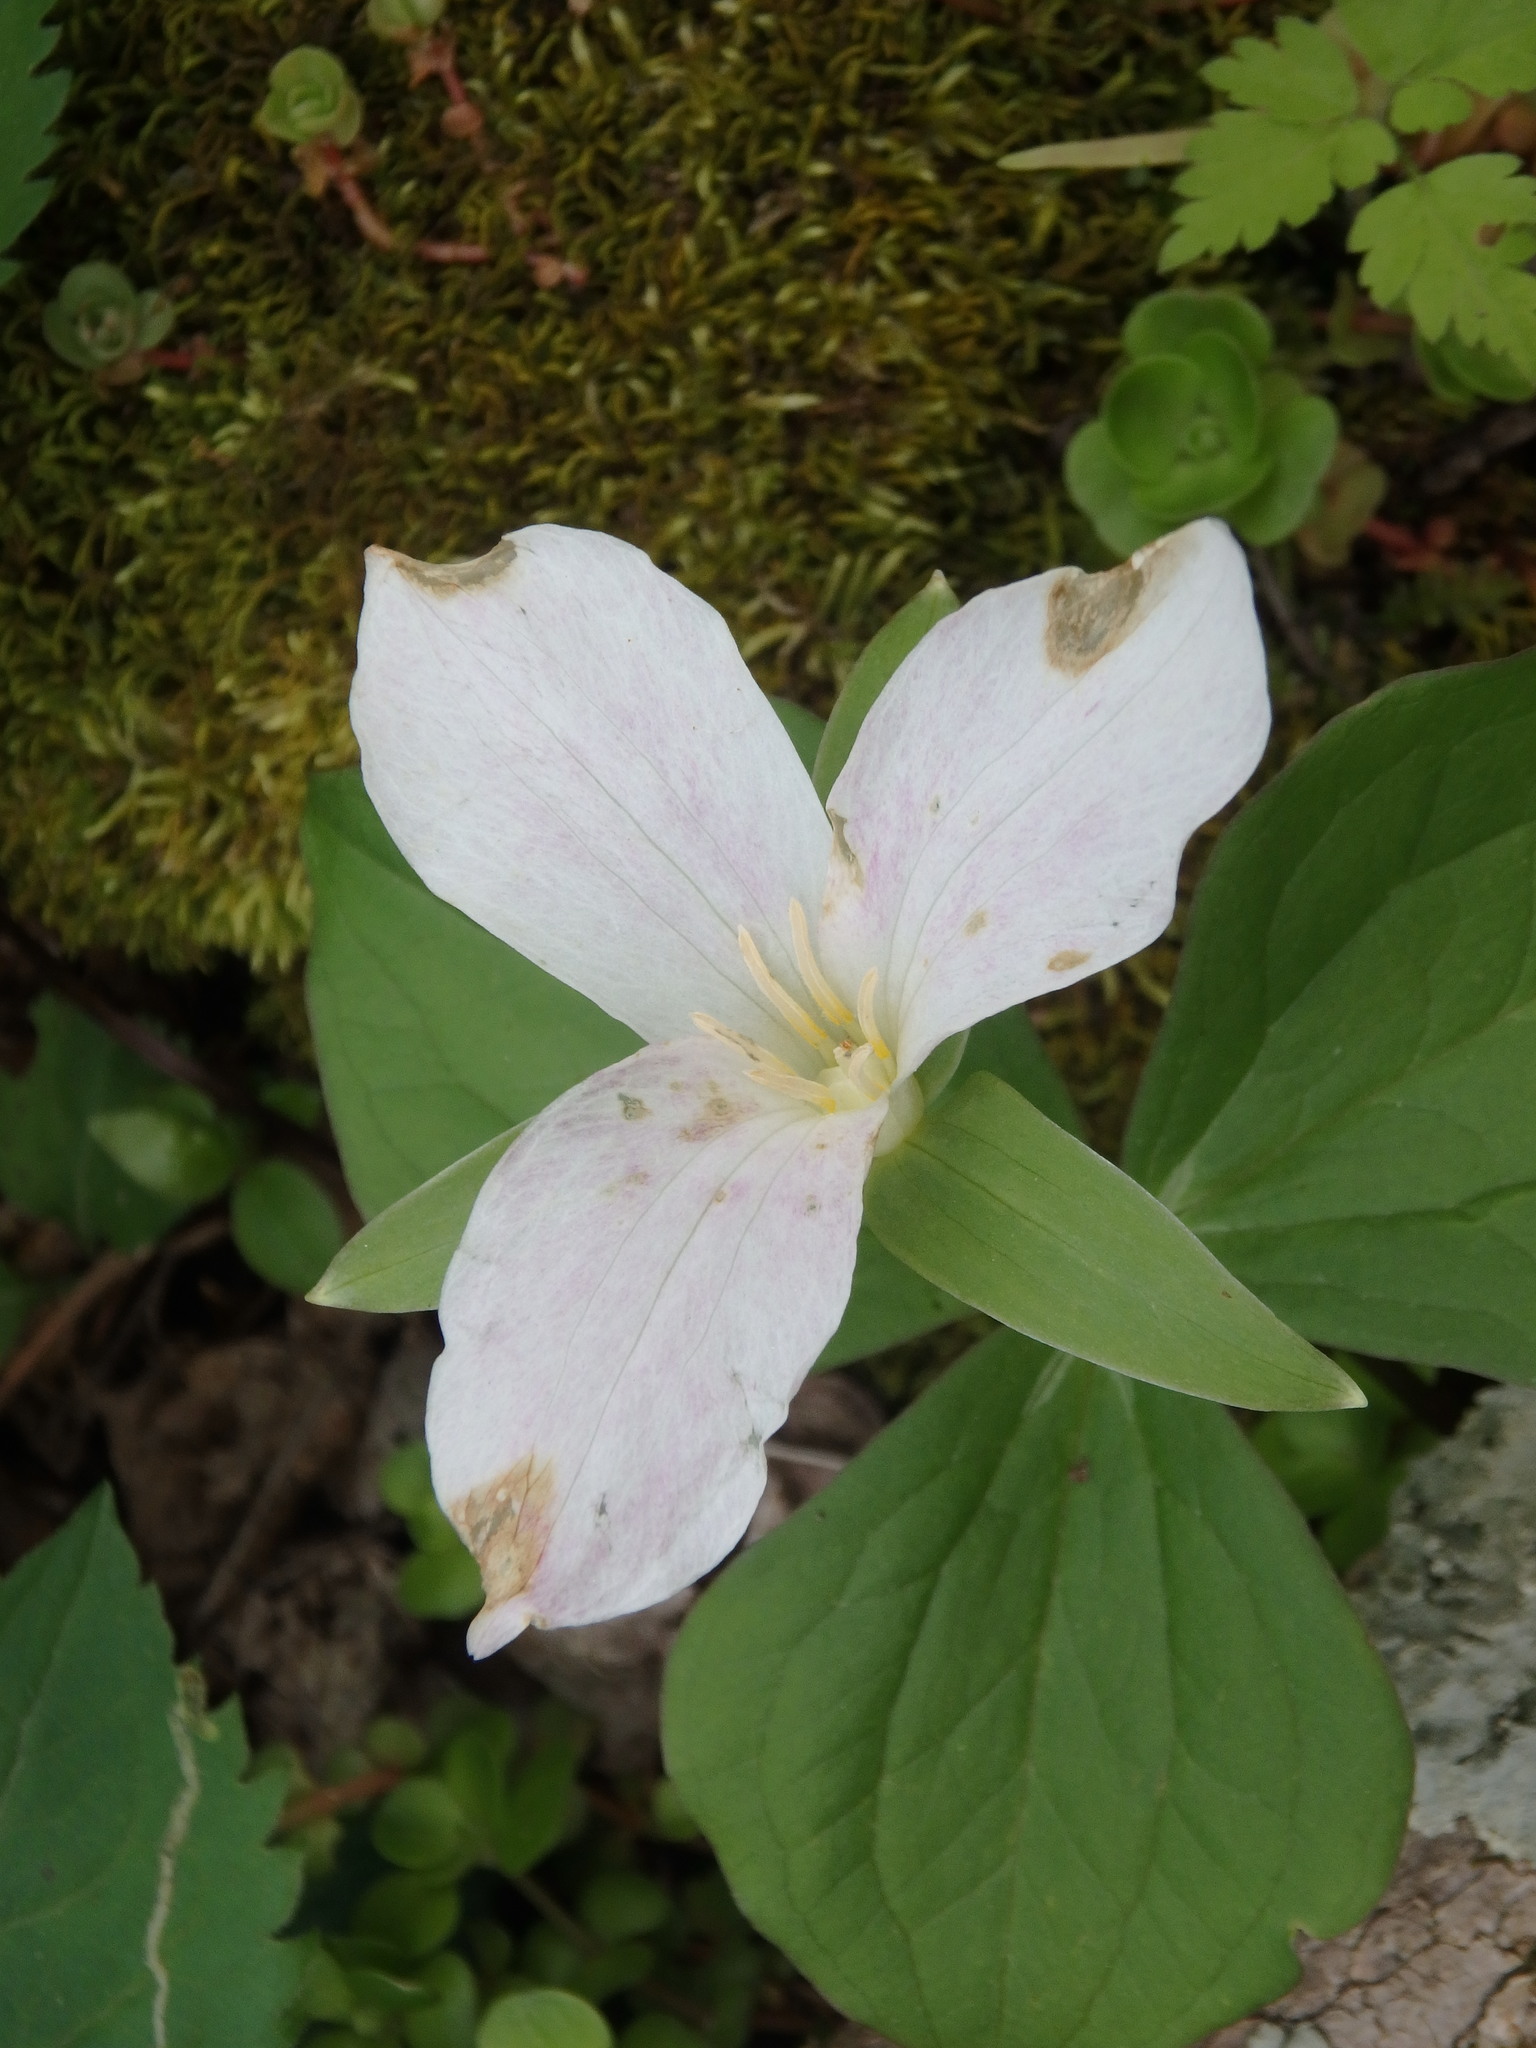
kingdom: Plantae
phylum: Tracheophyta
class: Liliopsida
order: Liliales
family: Melanthiaceae
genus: Trillium
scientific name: Trillium grandiflorum
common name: Great white trillium
